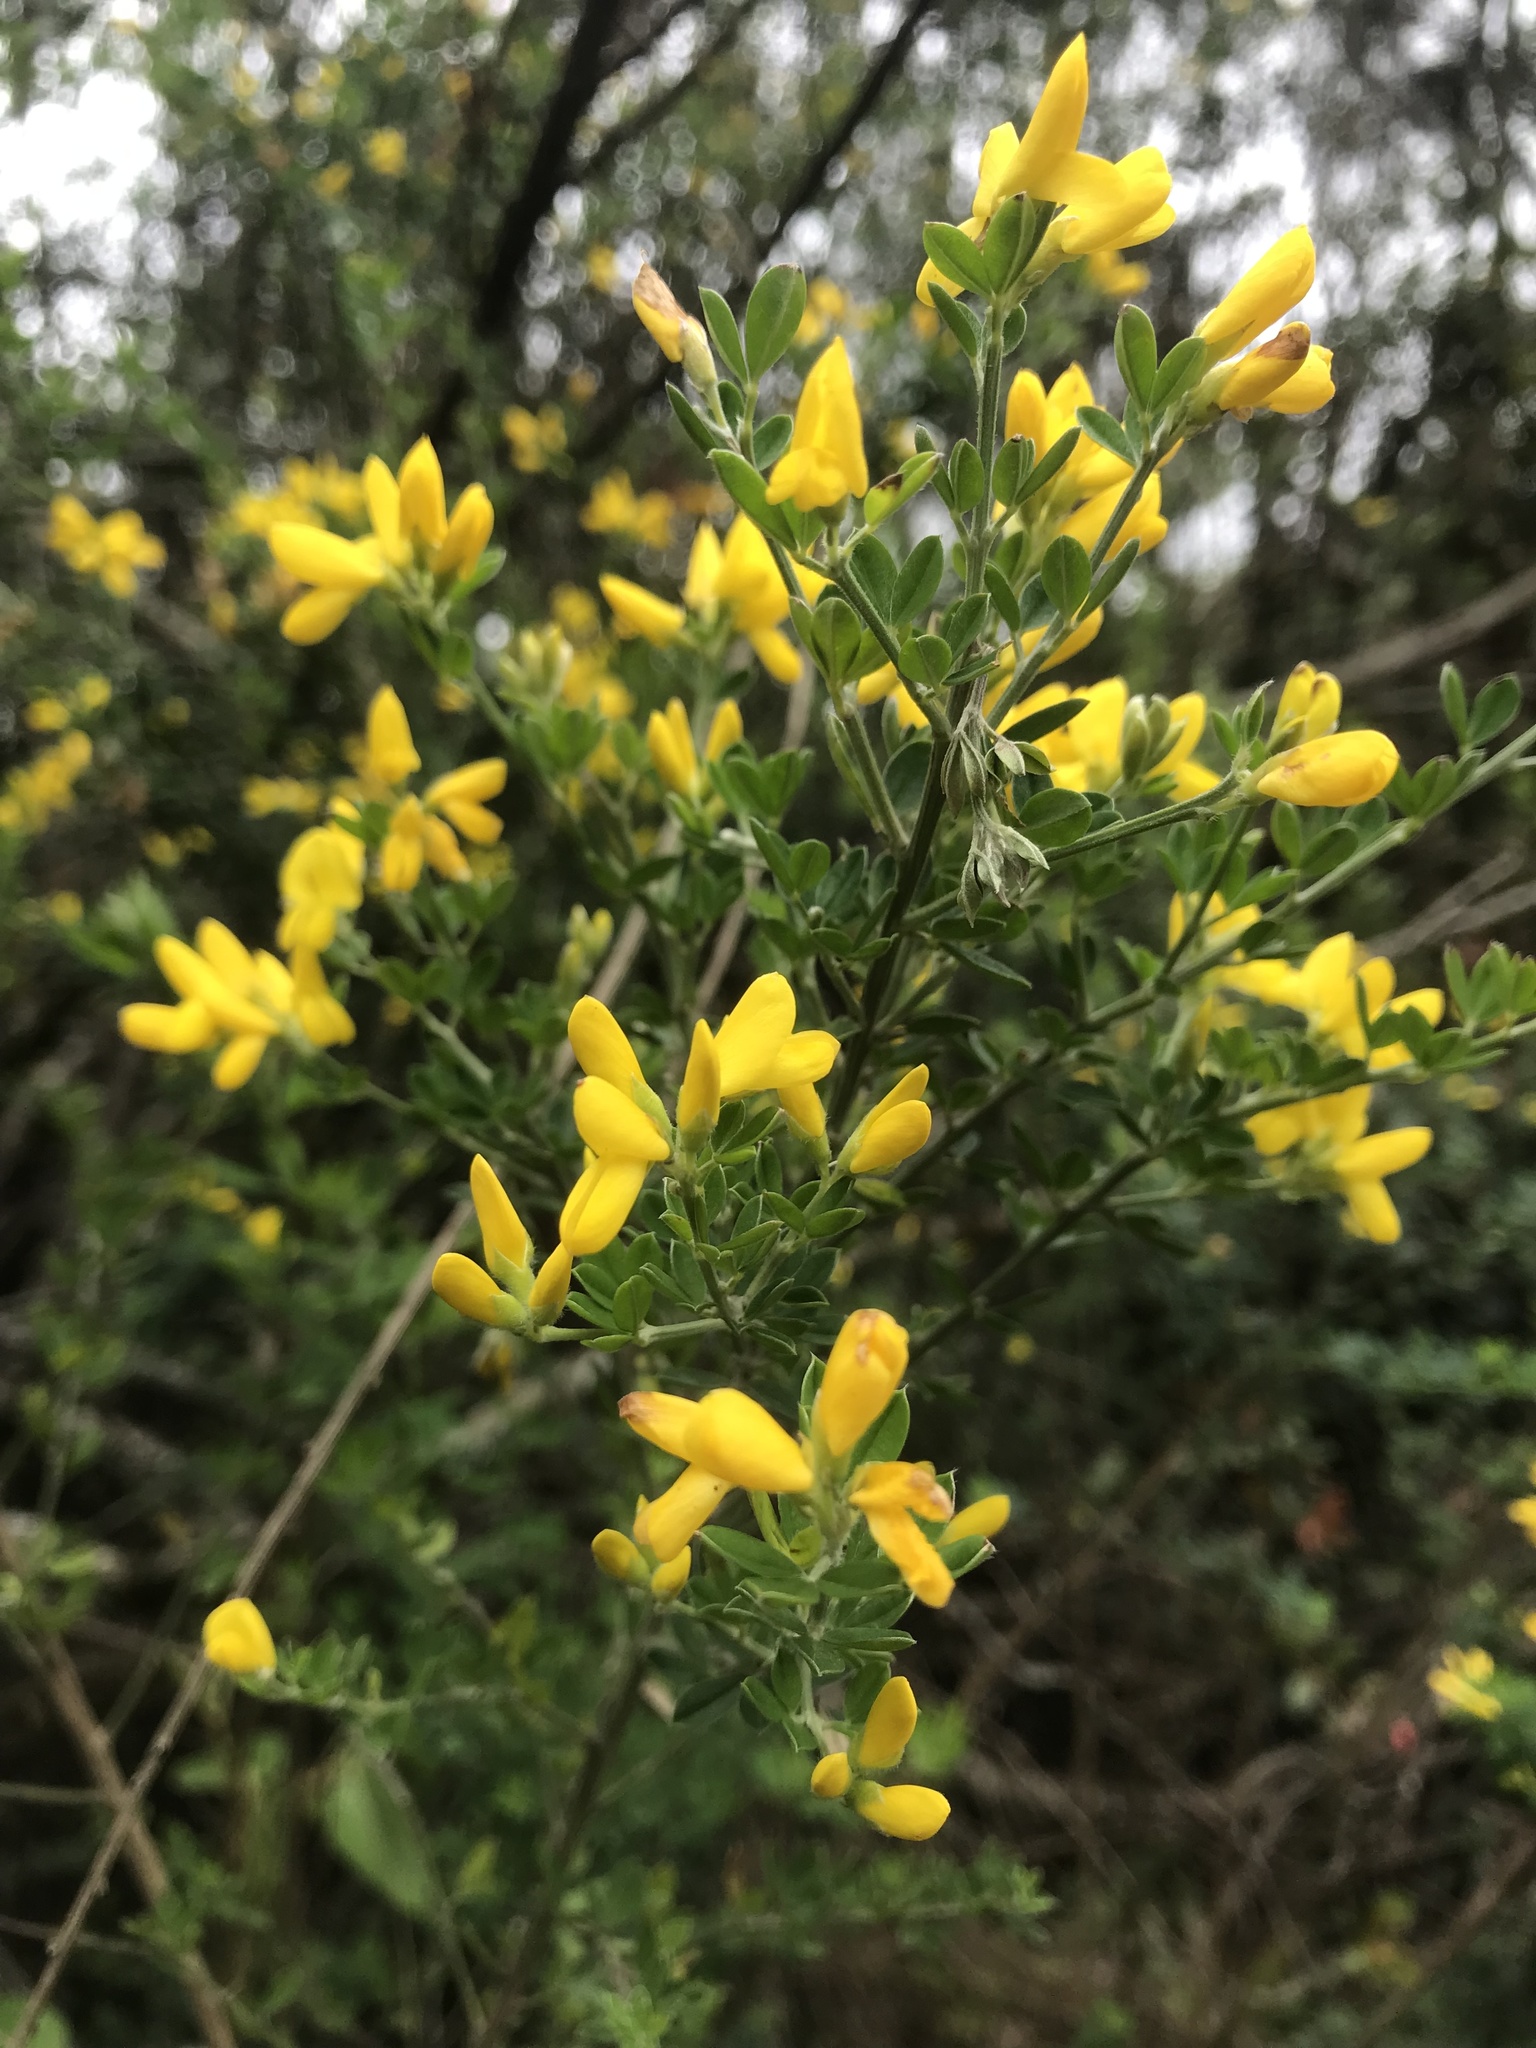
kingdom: Plantae
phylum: Tracheophyta
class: Magnoliopsida
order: Fabales
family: Fabaceae
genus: Genista
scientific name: Genista monspessulana
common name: Montpellier broom
